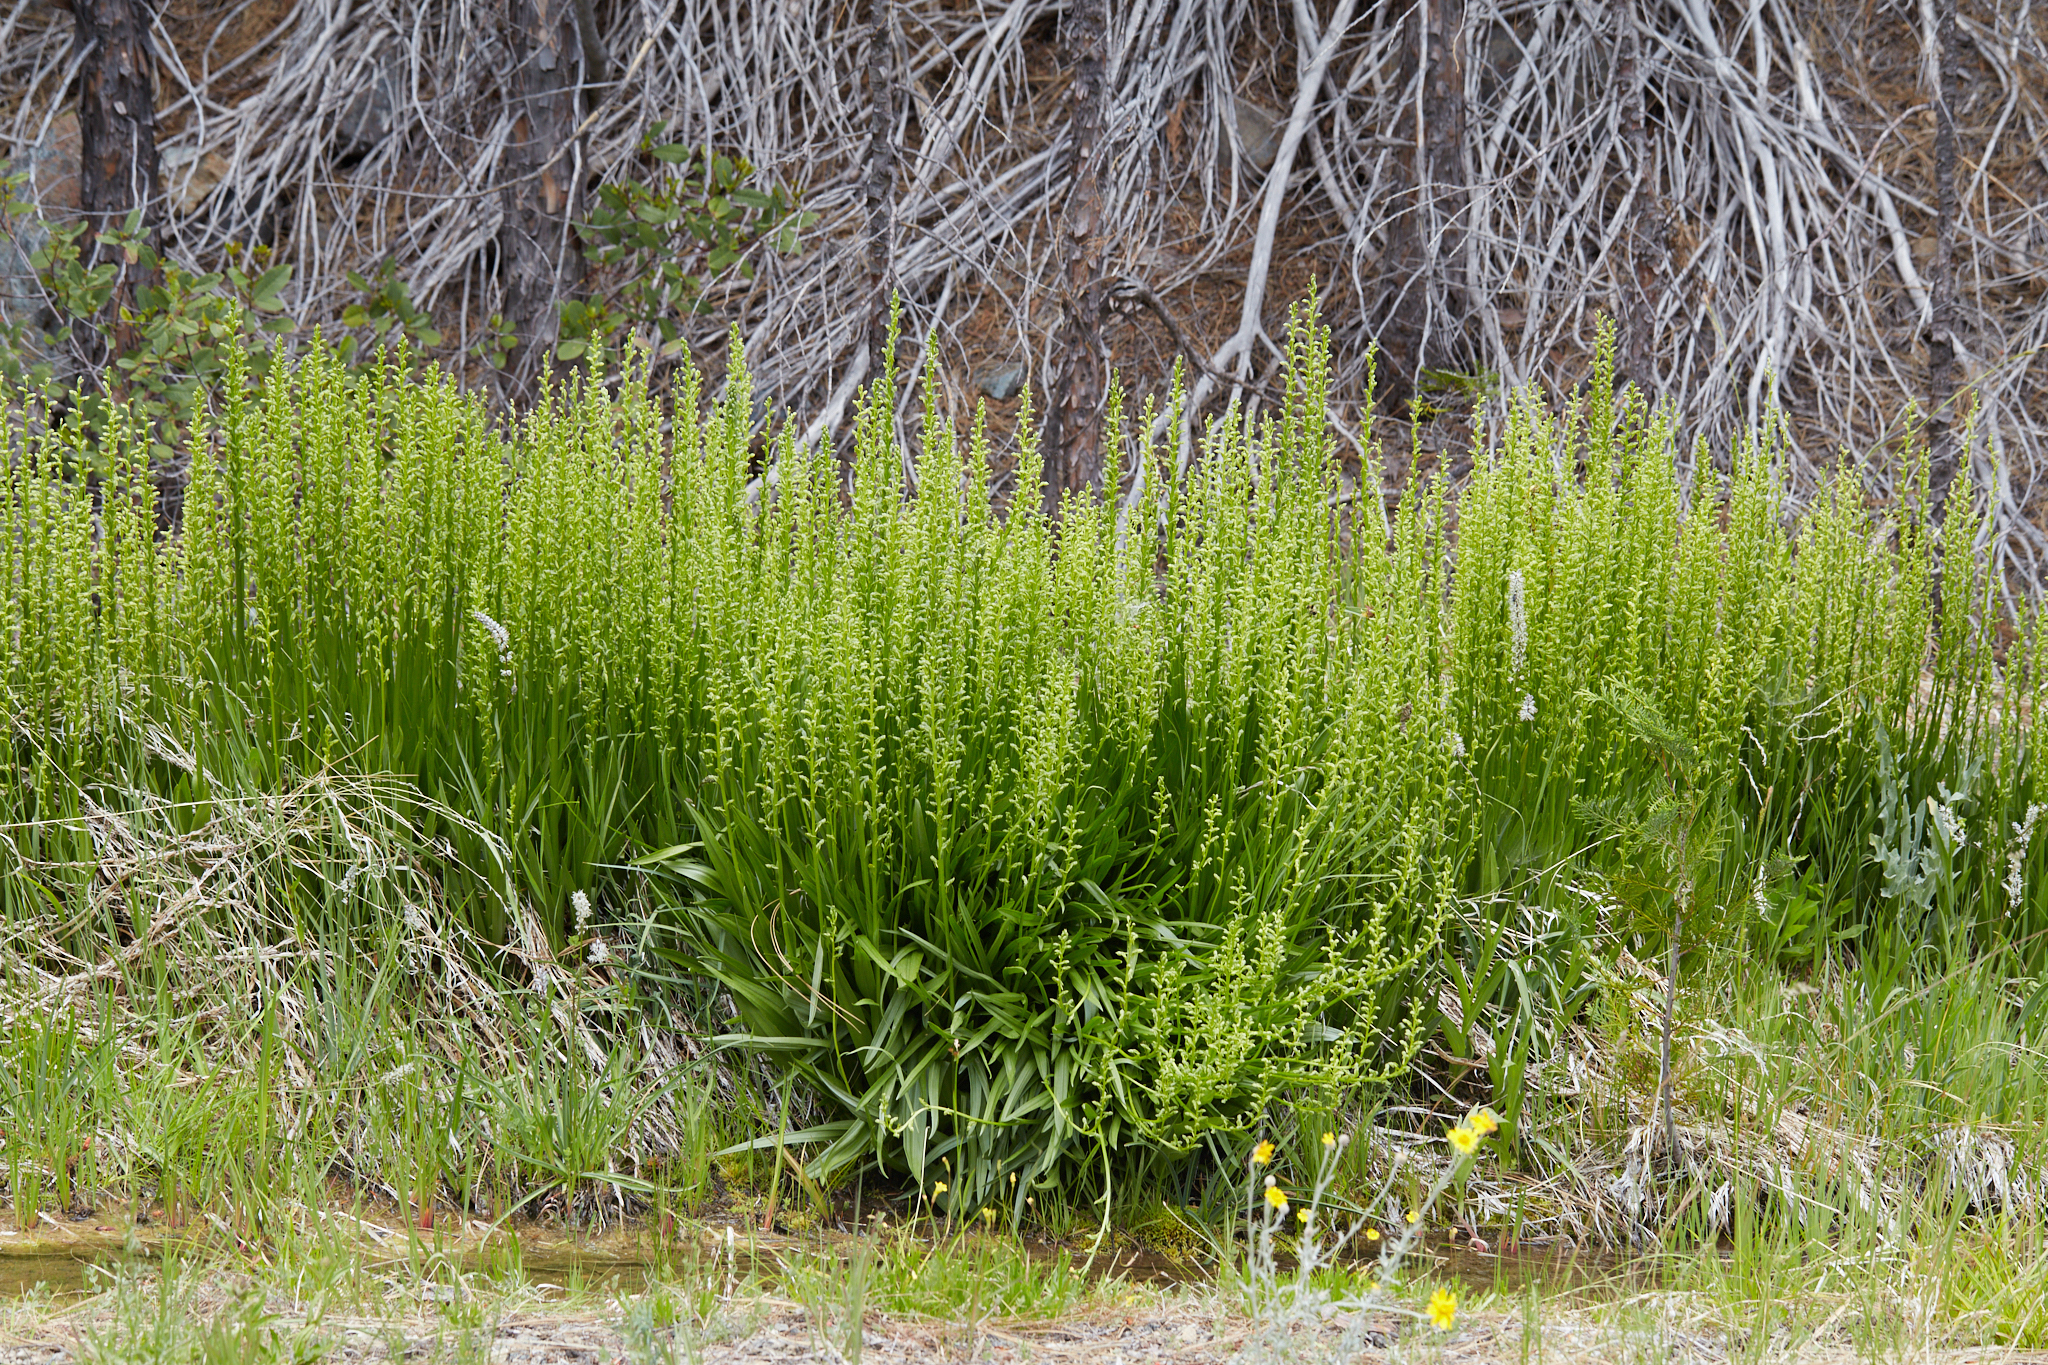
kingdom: Plantae
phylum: Tracheophyta
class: Liliopsida
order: Asparagales
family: Orchidaceae
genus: Platanthera
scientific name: Platanthera sparsiflora
